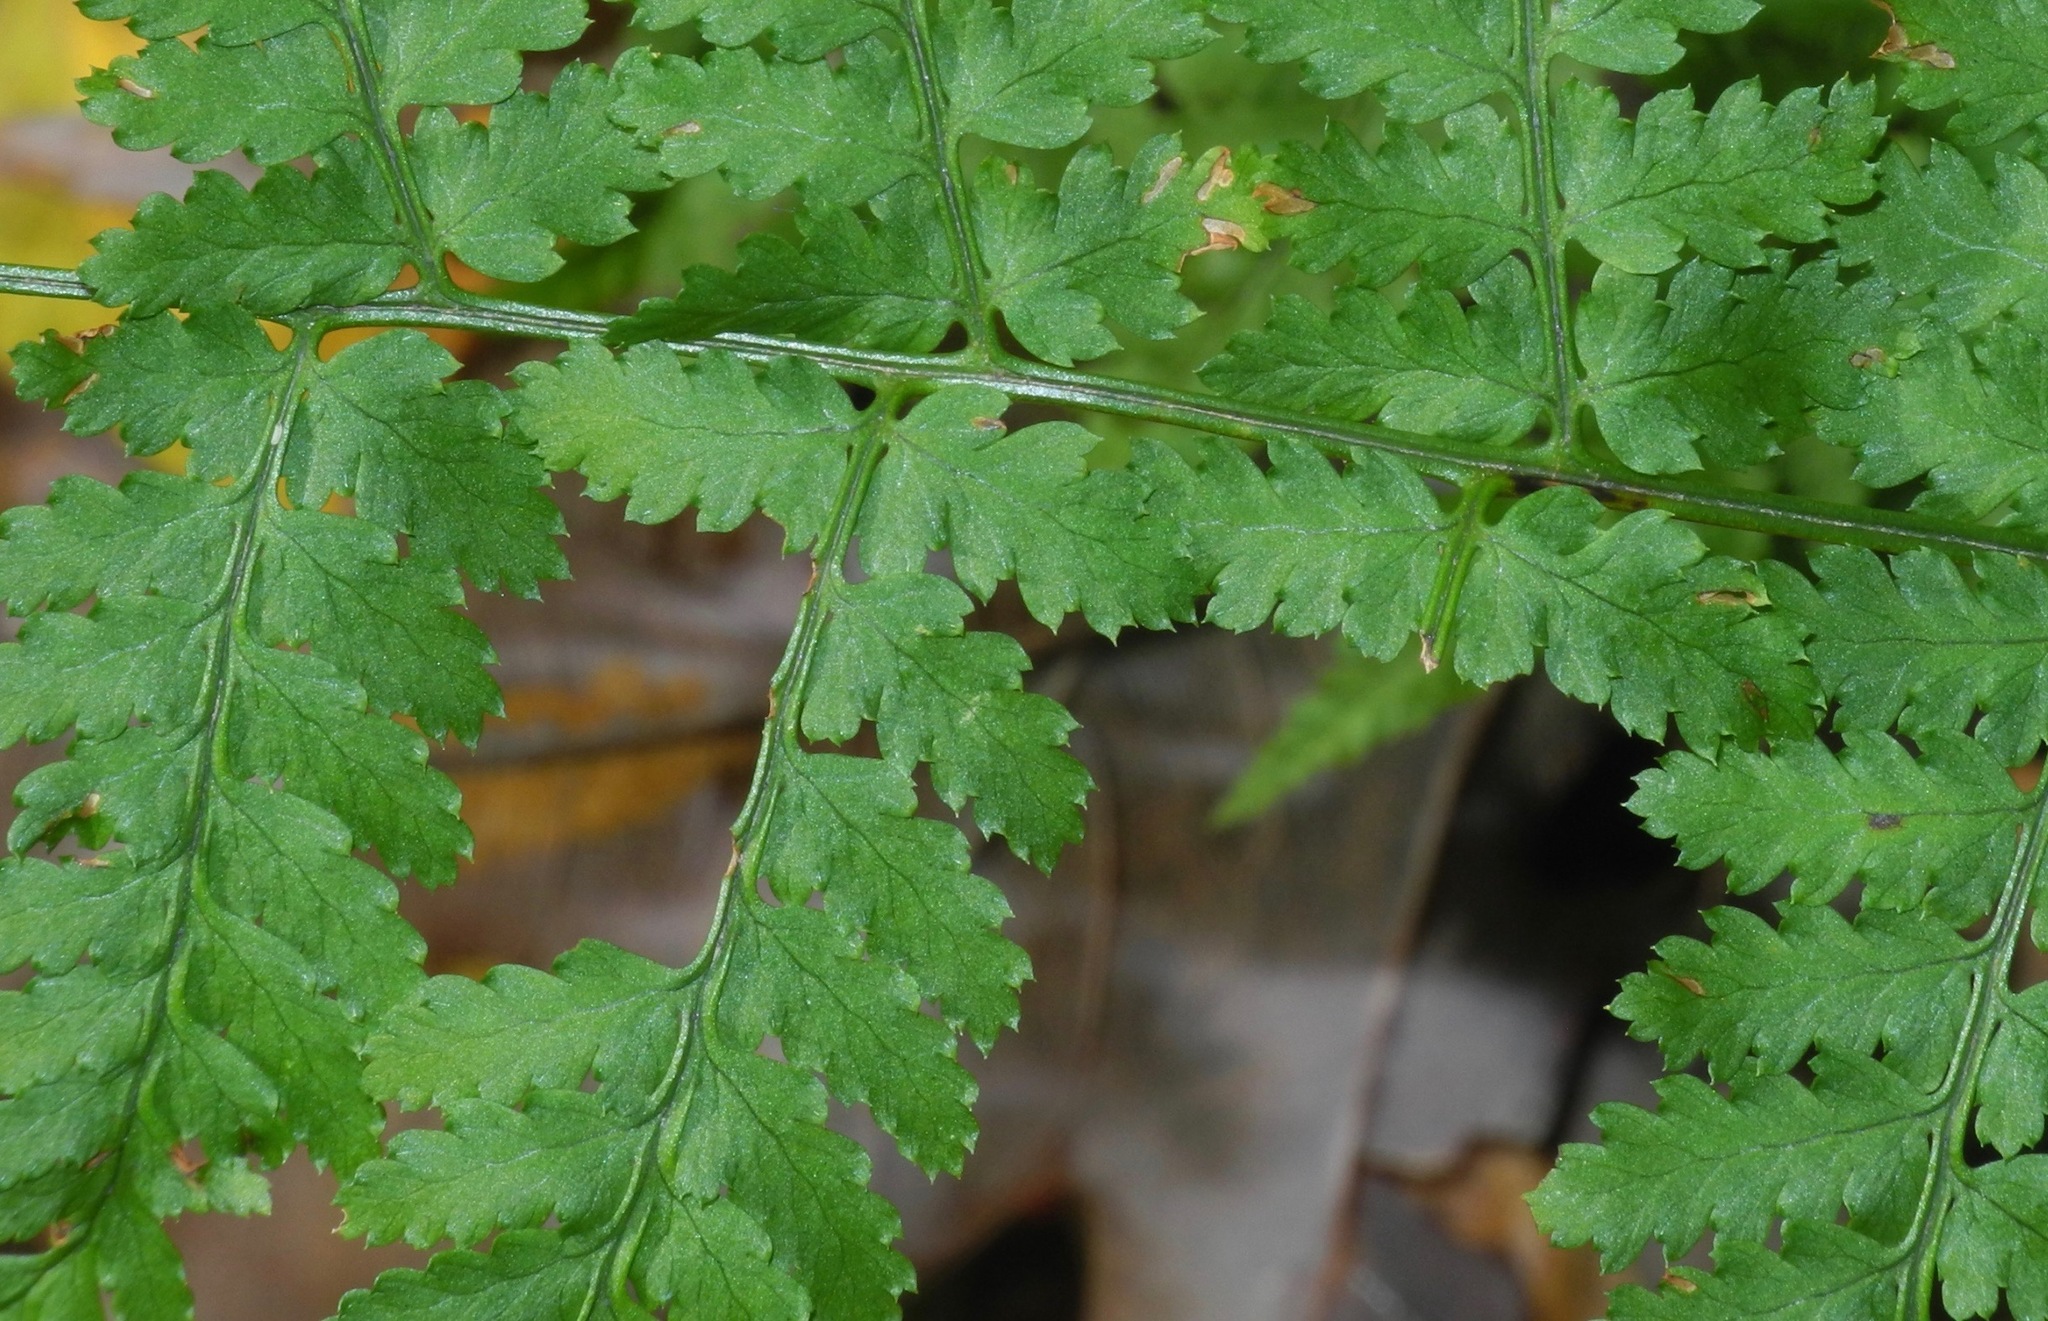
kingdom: Plantae
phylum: Tracheophyta
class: Polypodiopsida
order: Polypodiales
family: Dryopteridaceae
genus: Dryopteris
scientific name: Dryopteris carthusiana
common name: Narrow buckler-fern
